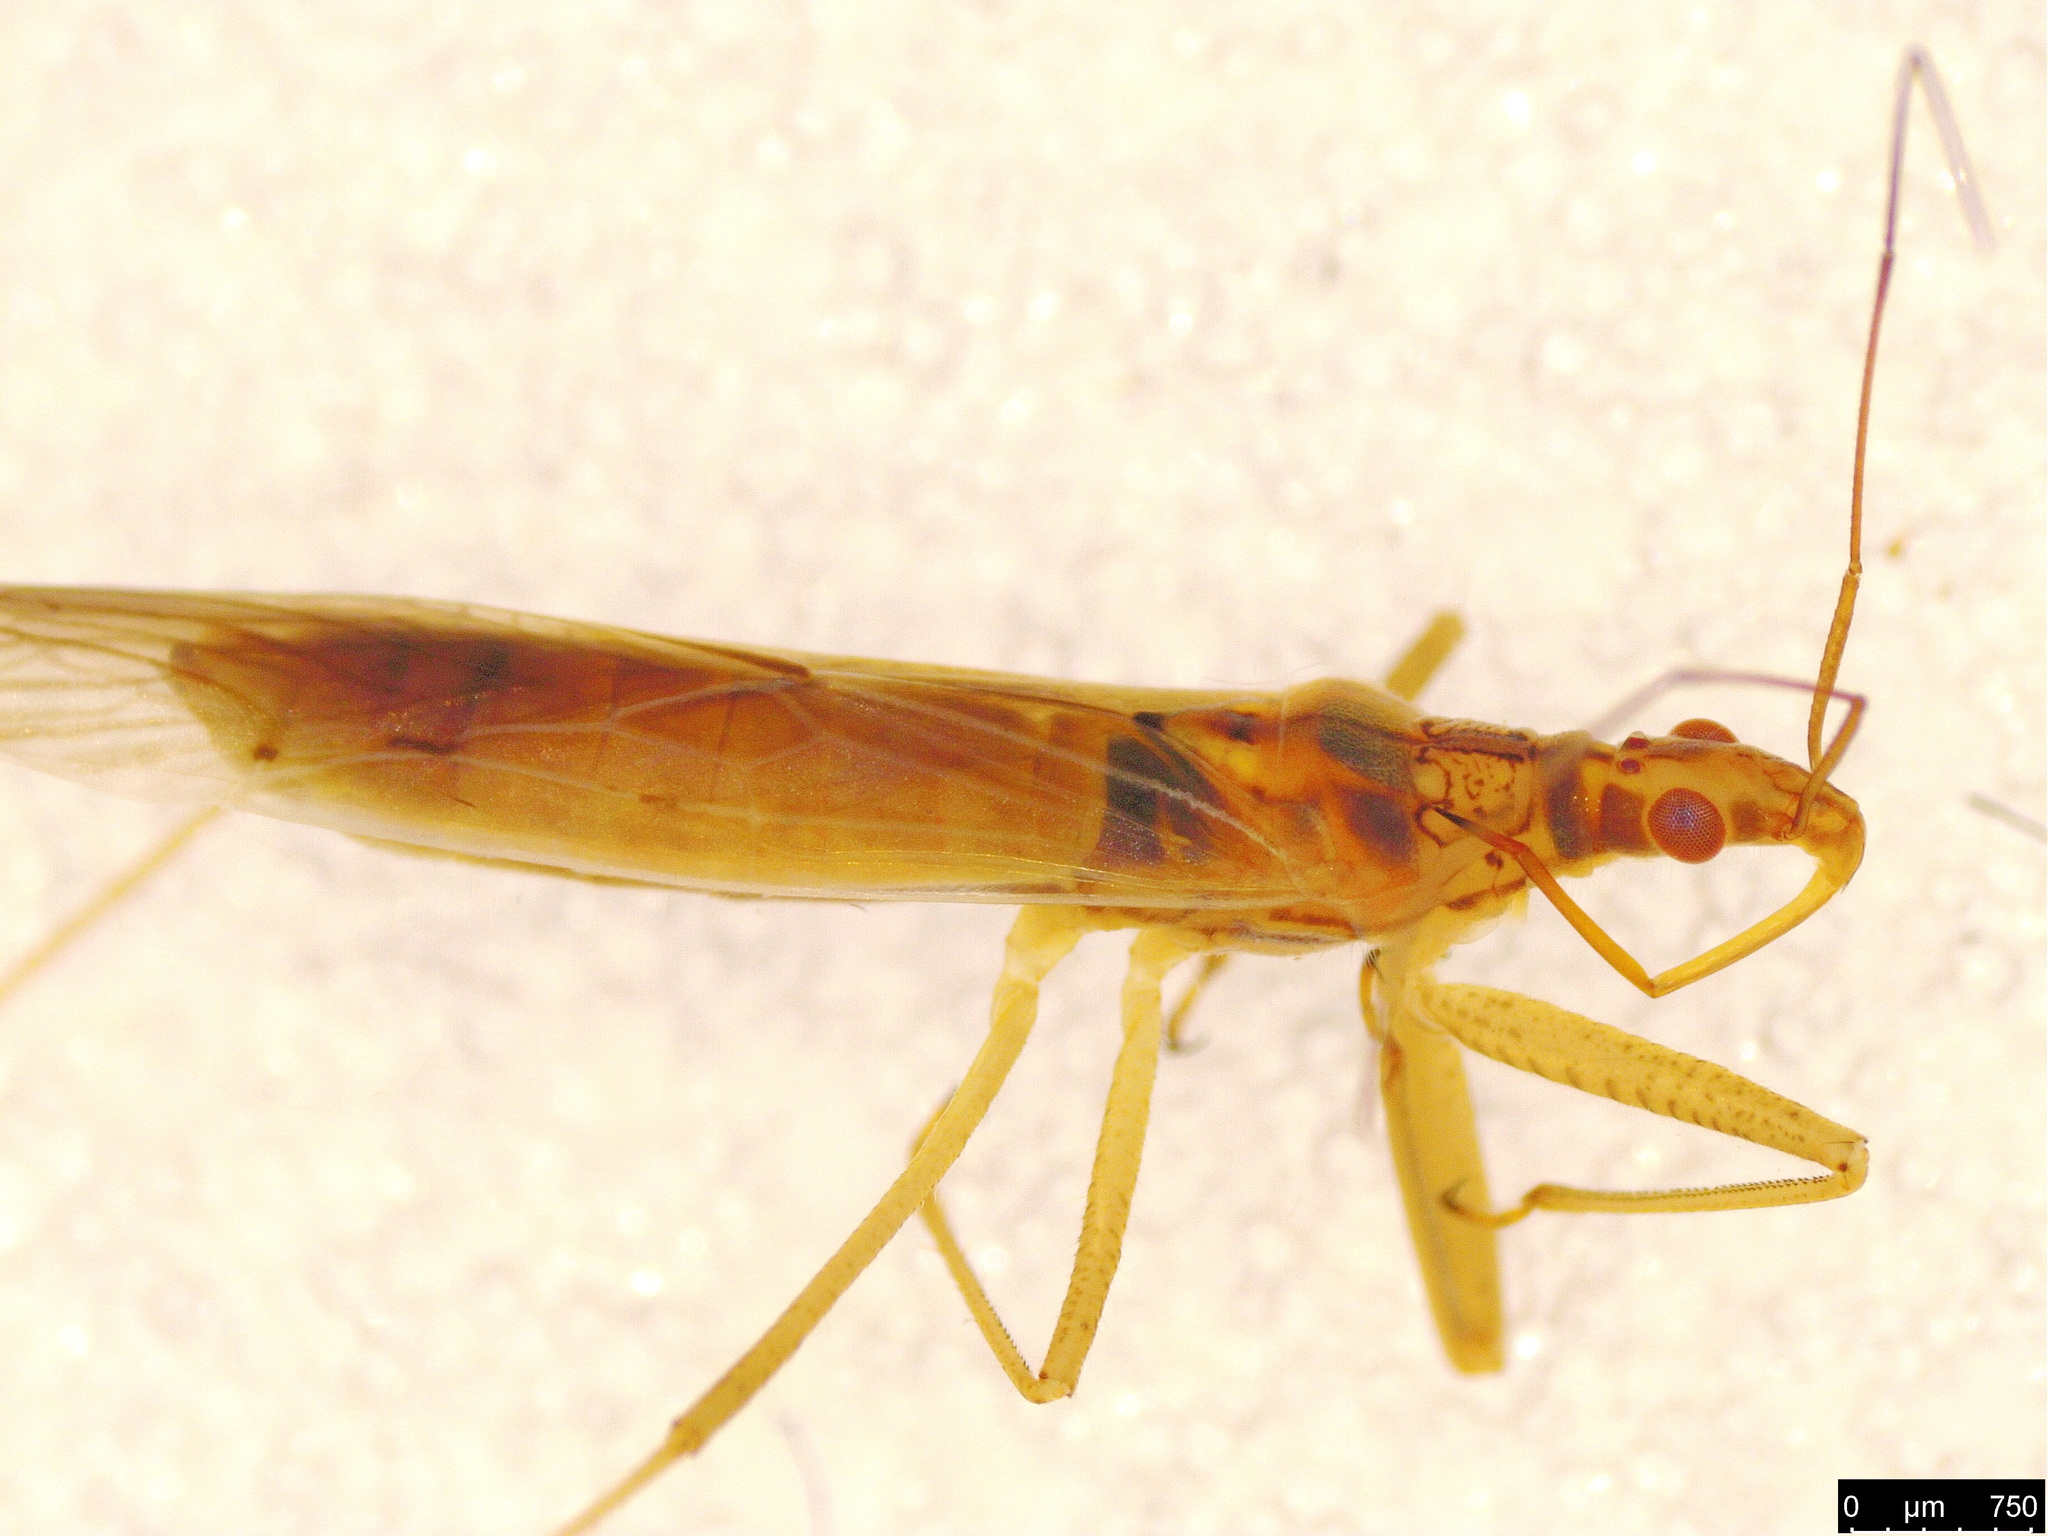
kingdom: Animalia
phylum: Arthropoda
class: Insecta
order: Hemiptera
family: Nabidae
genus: Nabis
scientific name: Nabis kinbergii
